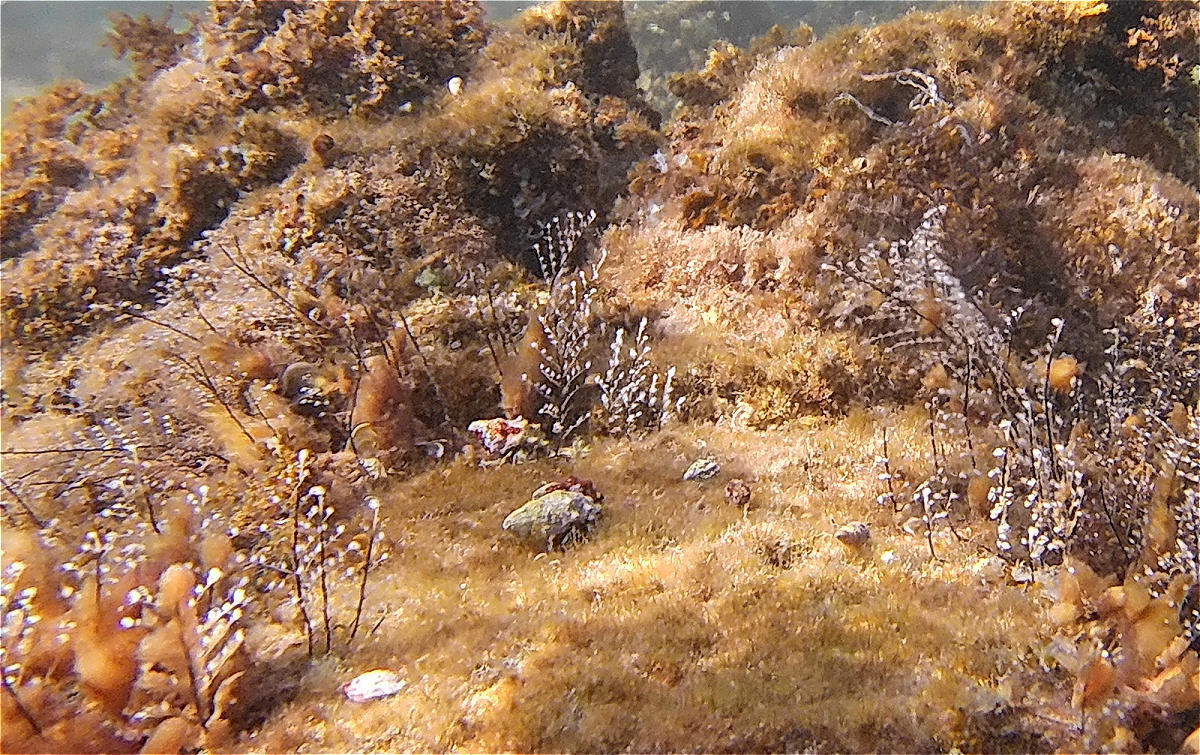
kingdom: Animalia
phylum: Cnidaria
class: Hydrozoa
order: Anthoathecata
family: Pennariidae
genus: Pennaria
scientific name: Pennaria disticha
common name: Feather hydroid
